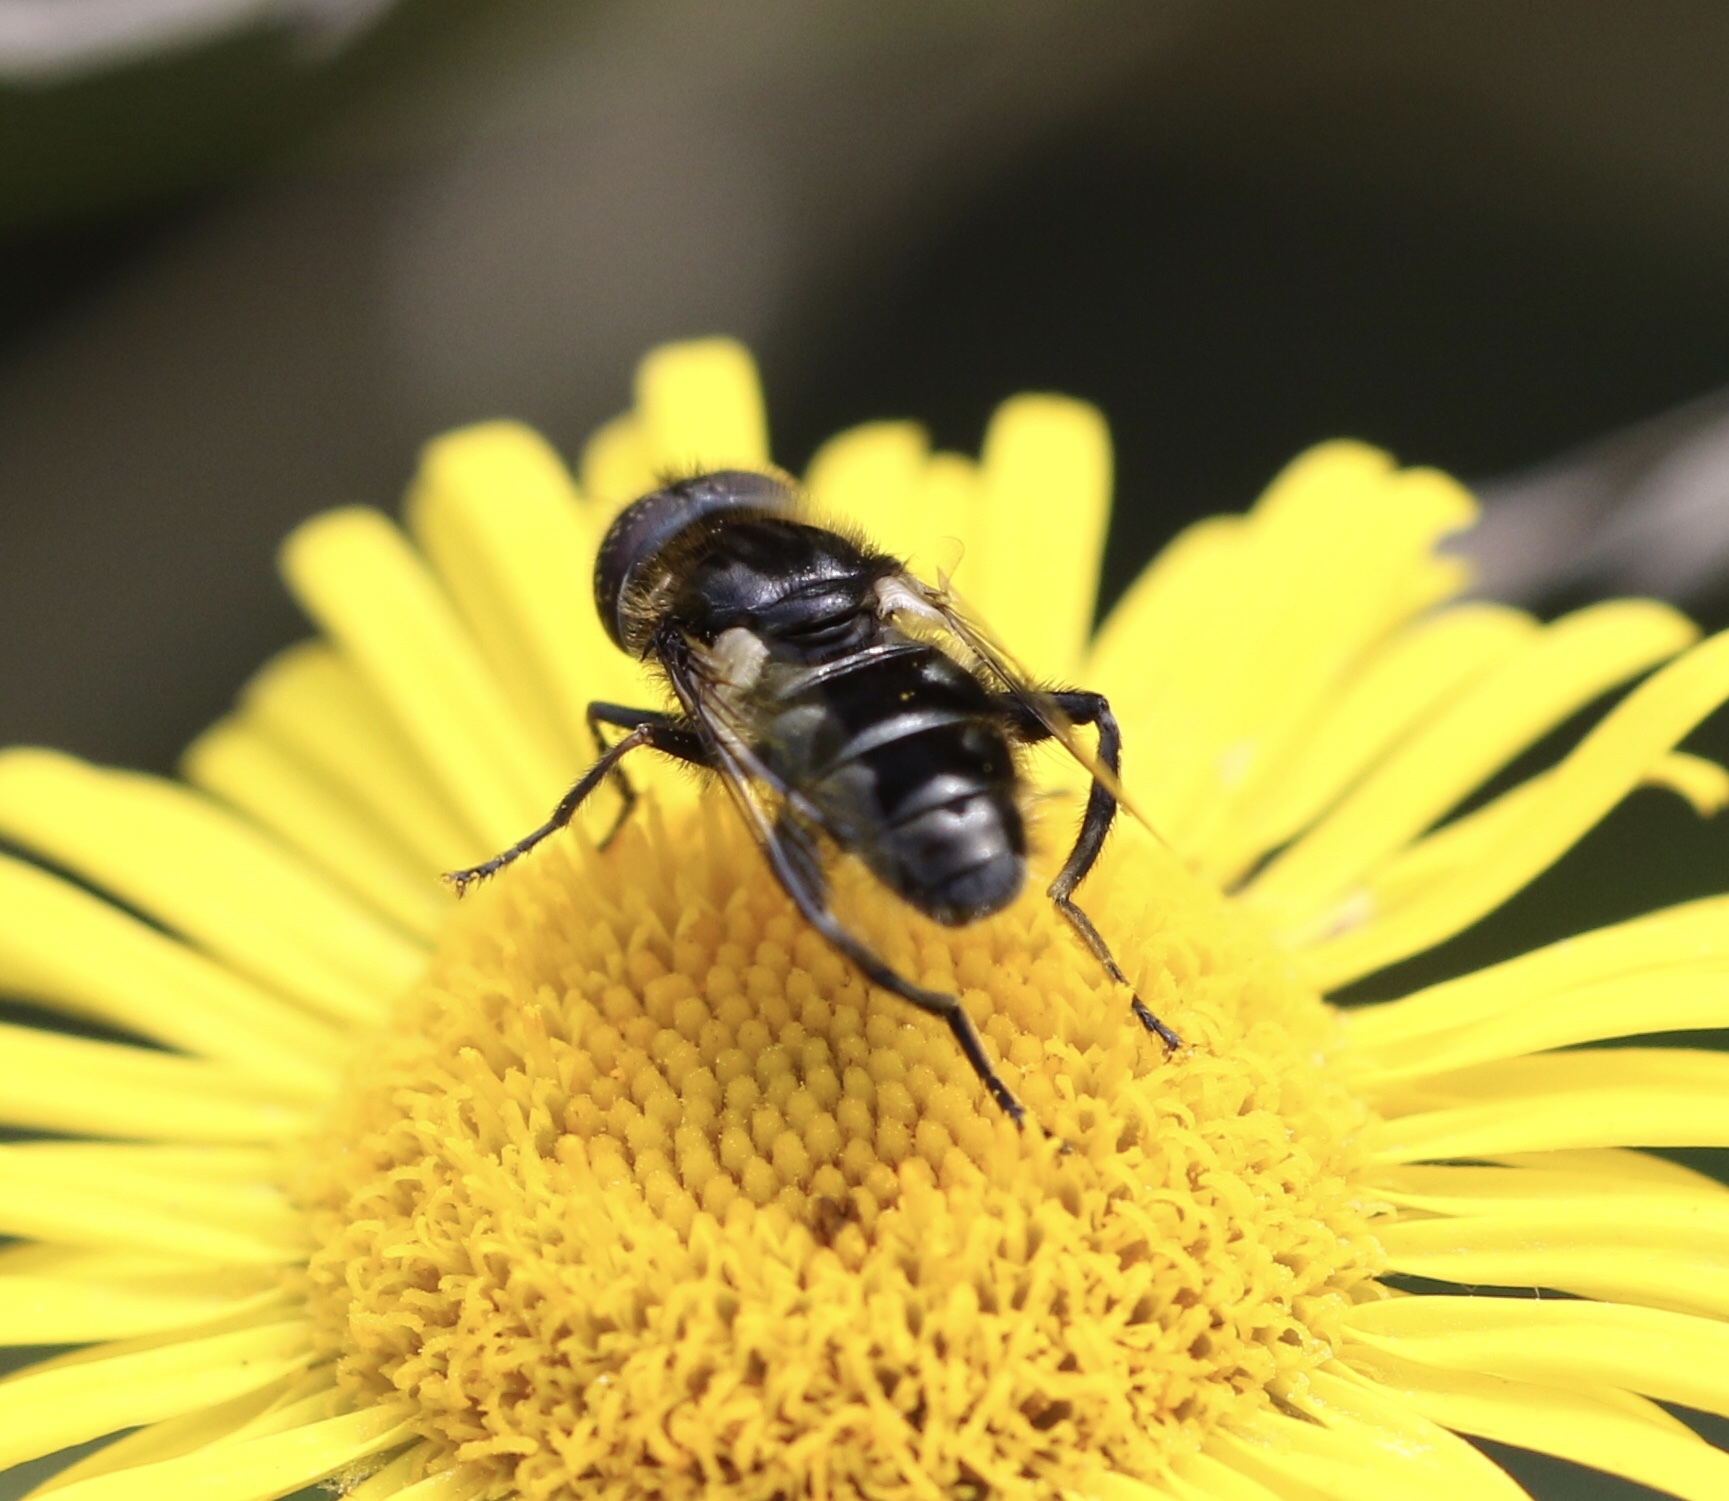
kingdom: Animalia
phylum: Arthropoda
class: Insecta
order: Diptera
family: Syrphidae
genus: Eristalinus
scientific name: Eristalinus sepulchralis
